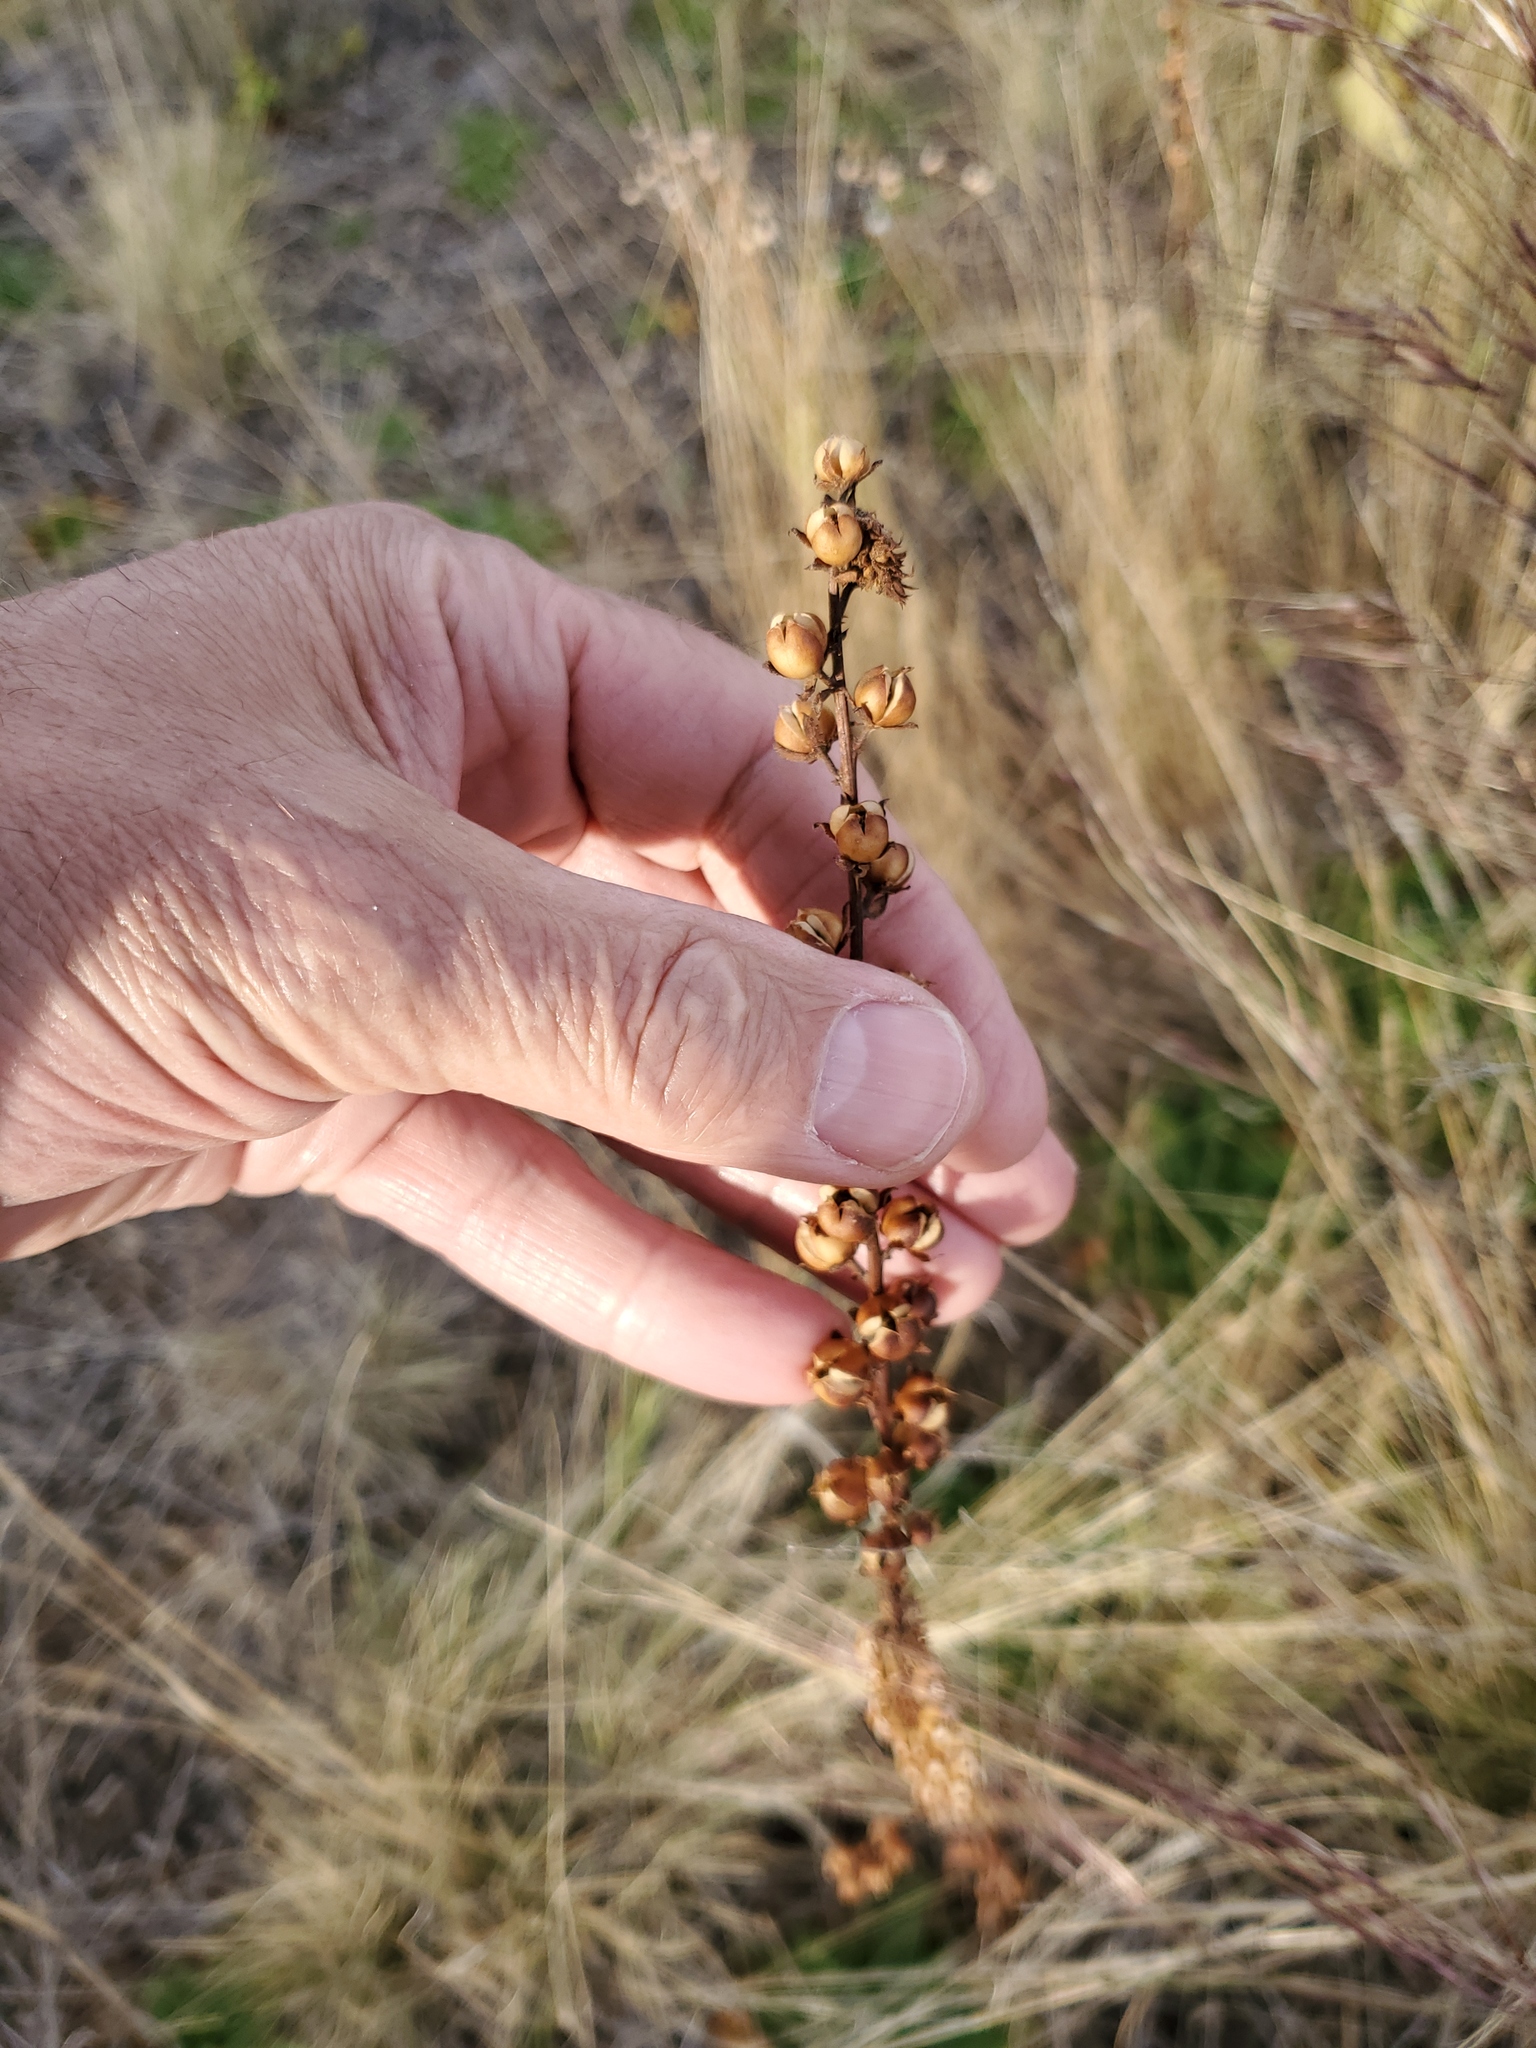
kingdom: Plantae
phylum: Tracheophyta
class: Magnoliopsida
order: Lamiales
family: Scrophulariaceae
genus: Verbascum
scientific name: Verbascum virgatum
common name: Twiggy mullein
